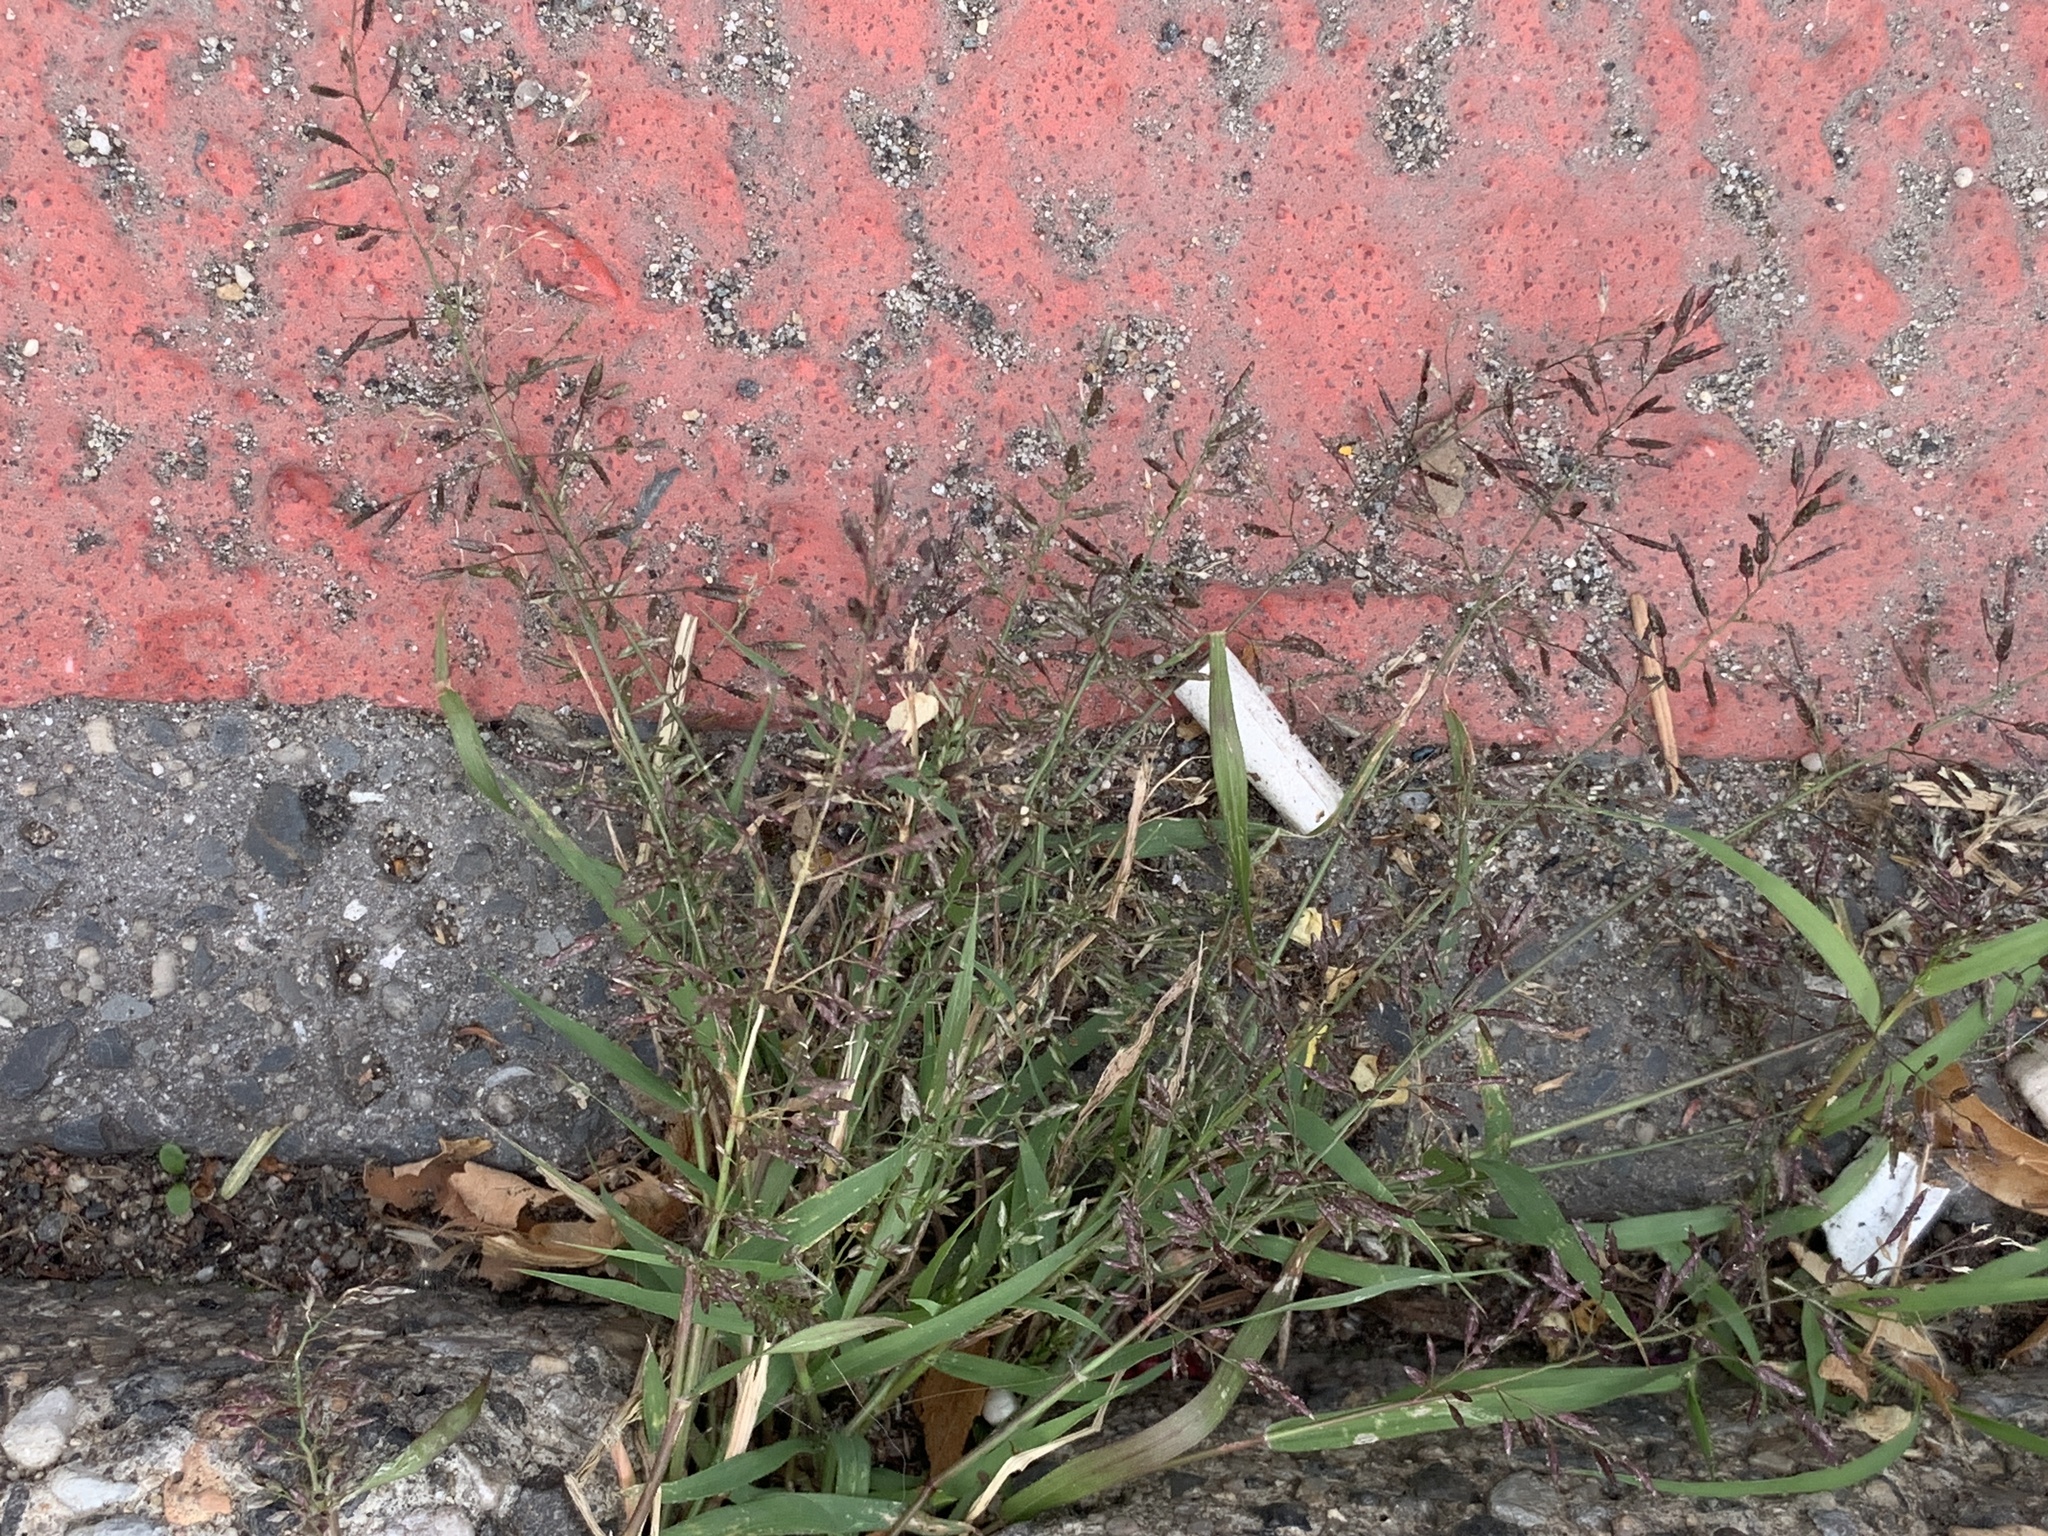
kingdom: Plantae
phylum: Tracheophyta
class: Liliopsida
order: Poales
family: Poaceae
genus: Eragrostis
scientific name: Eragrostis minor
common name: Small love-grass
